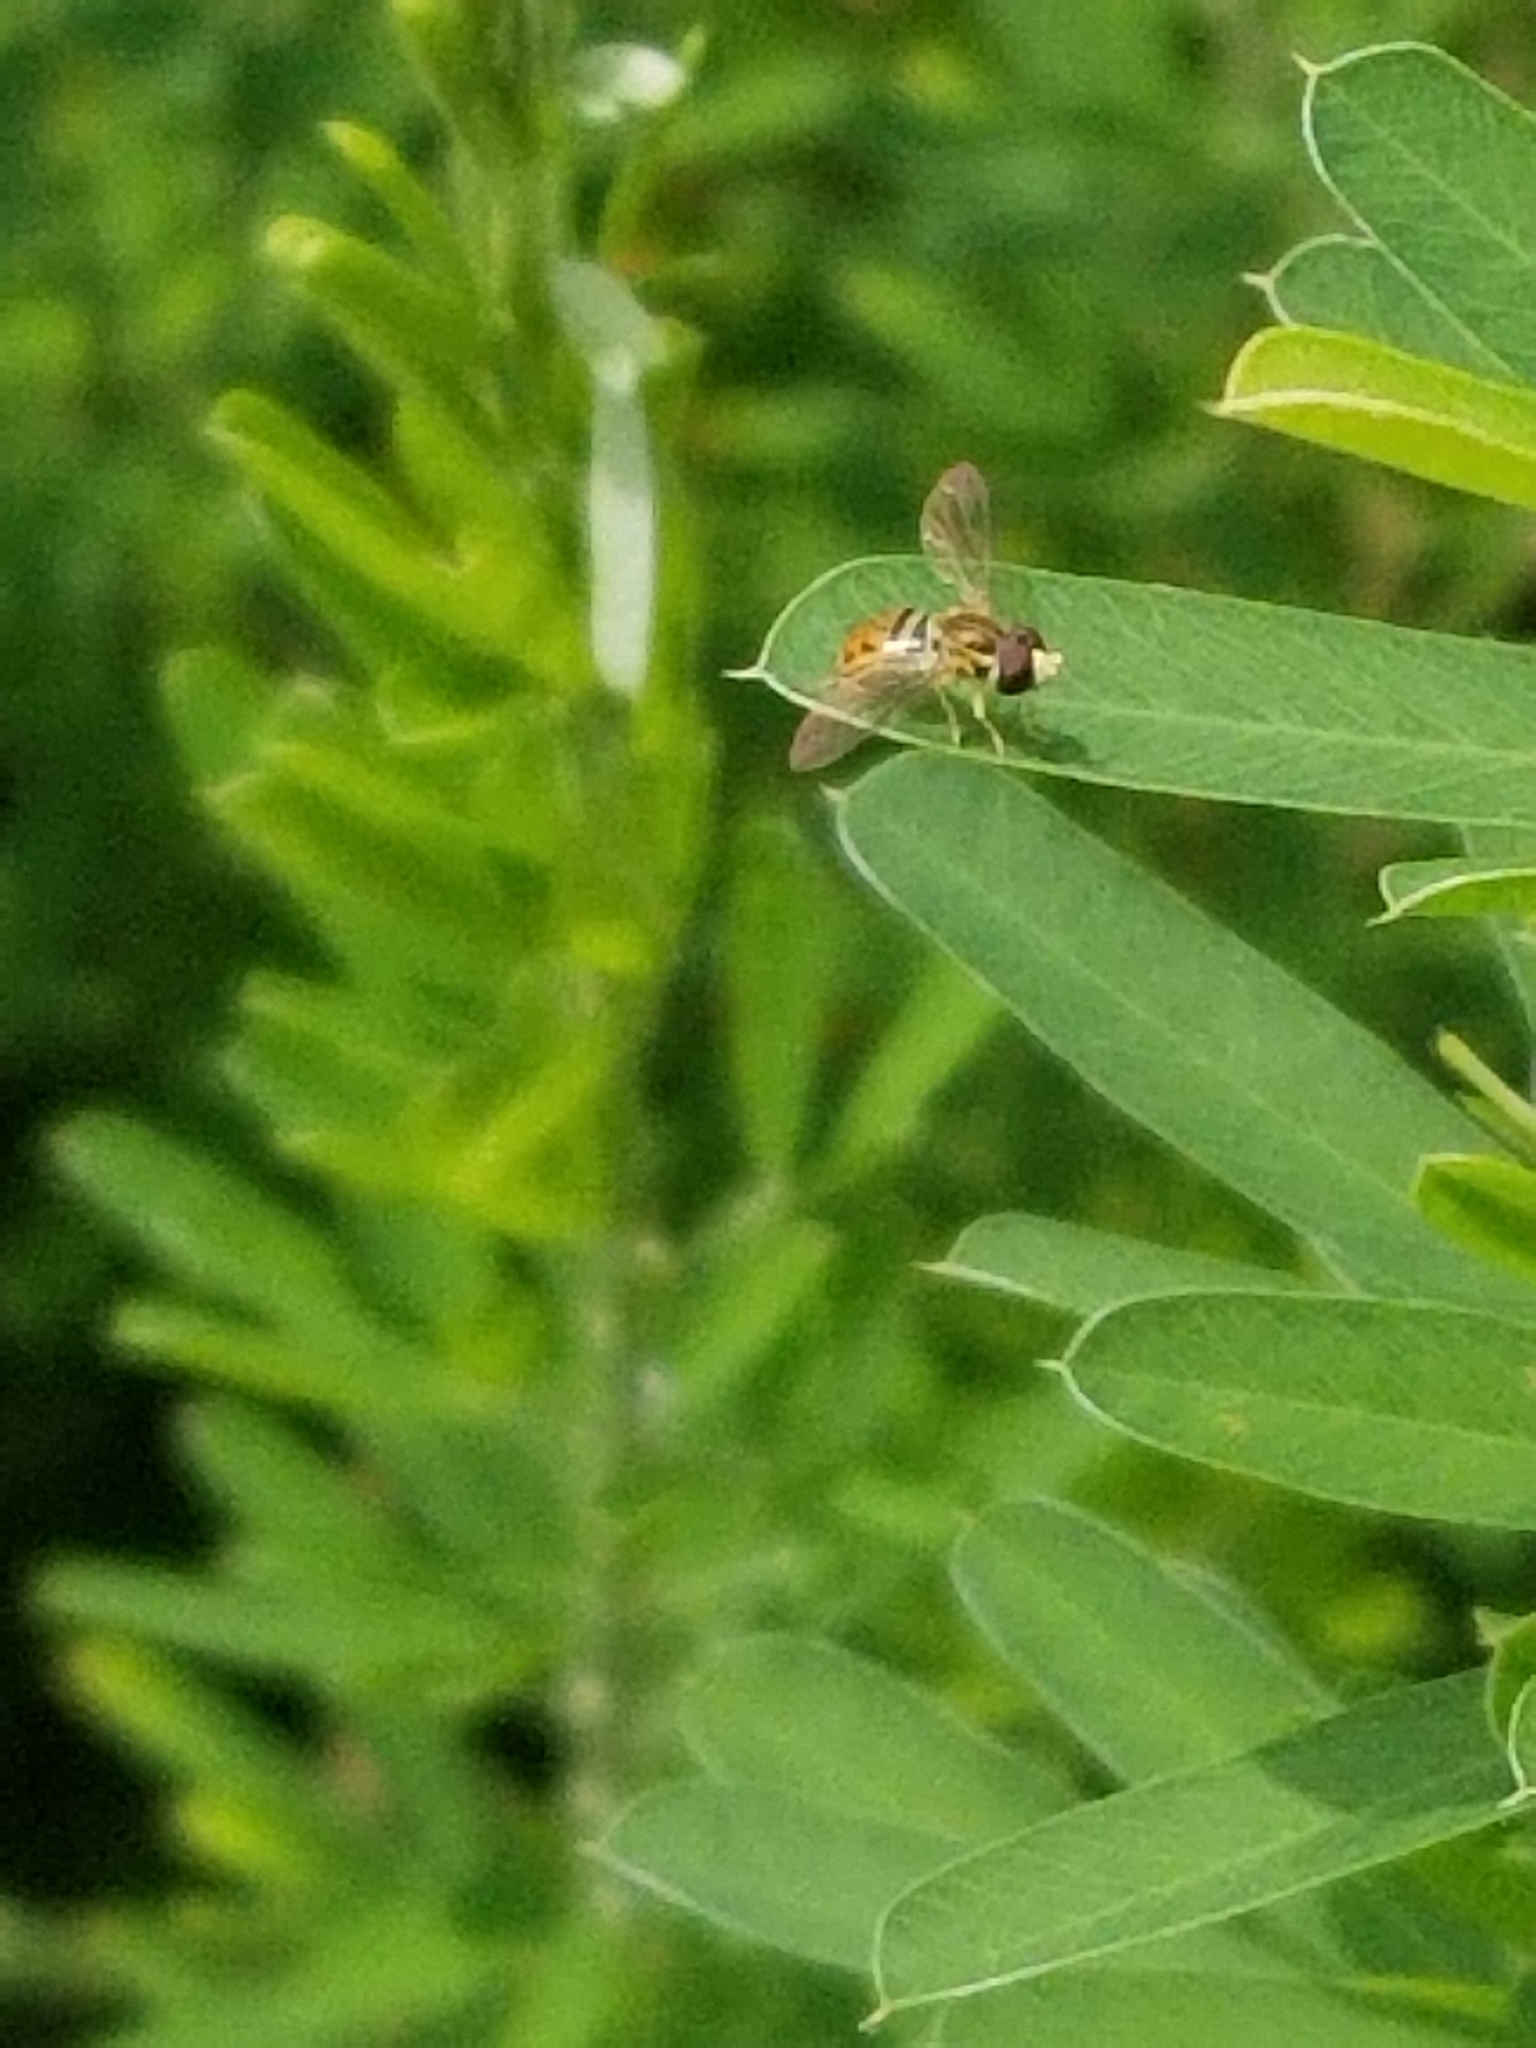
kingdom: Animalia
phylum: Arthropoda
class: Insecta
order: Diptera
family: Syrphidae
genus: Toxomerus
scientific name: Toxomerus marginatus
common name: Syrphid fly
